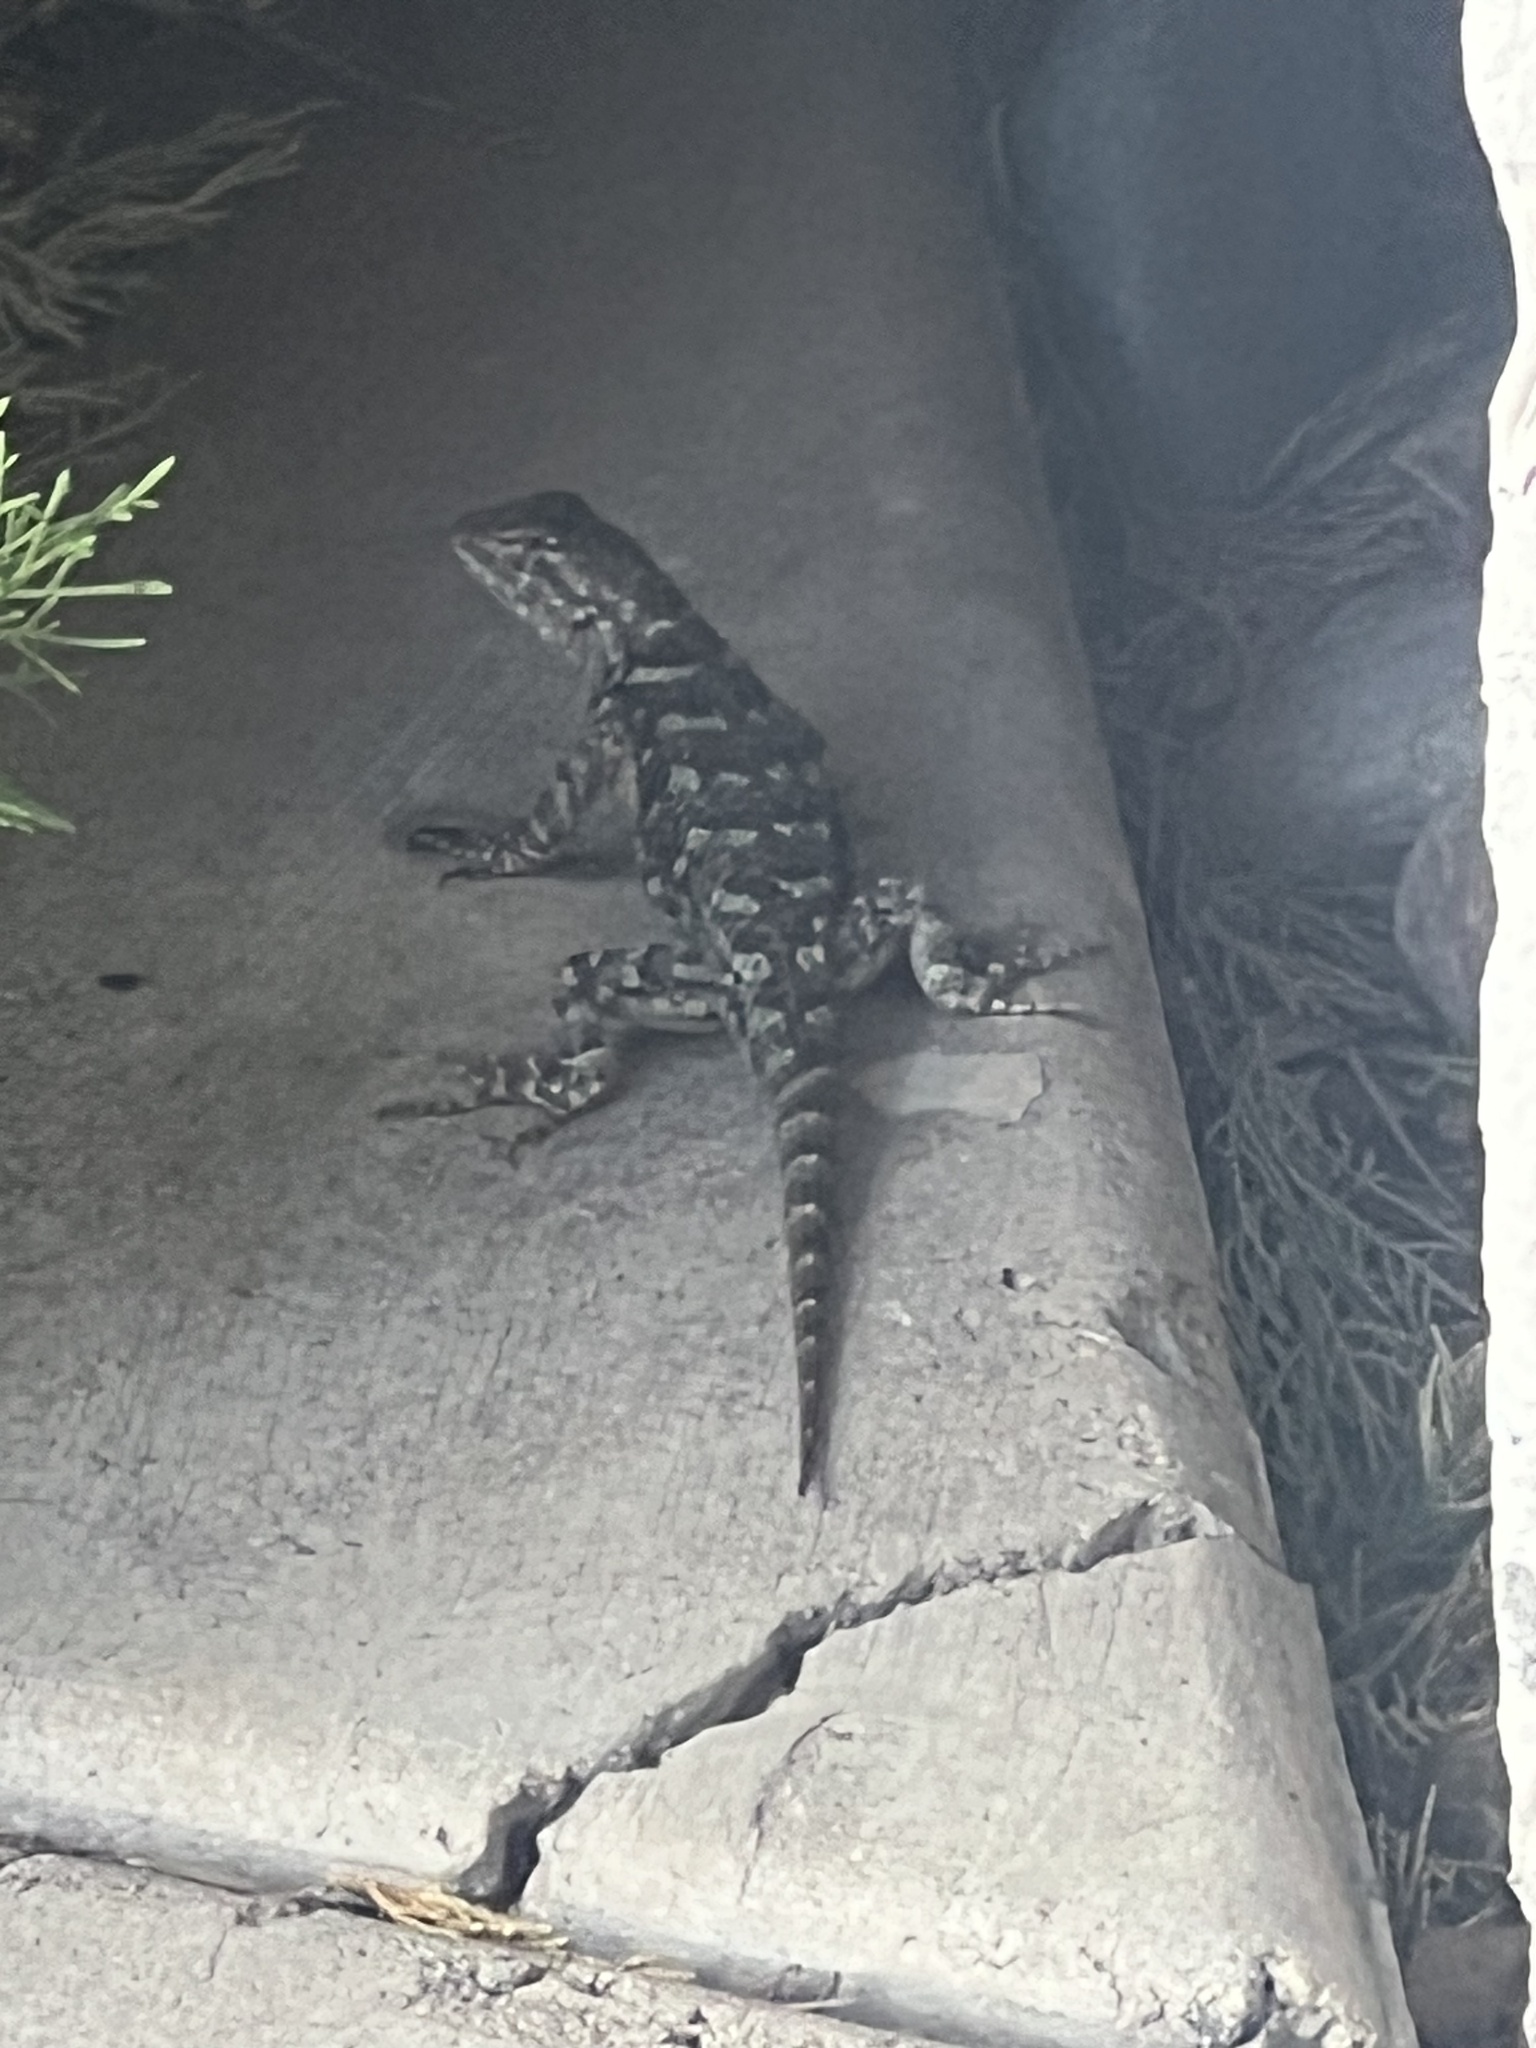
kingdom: Animalia
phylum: Chordata
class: Squamata
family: Phrynosomatidae
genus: Sceloporus
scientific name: Sceloporus clarkii
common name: Clark's spiny lizard
